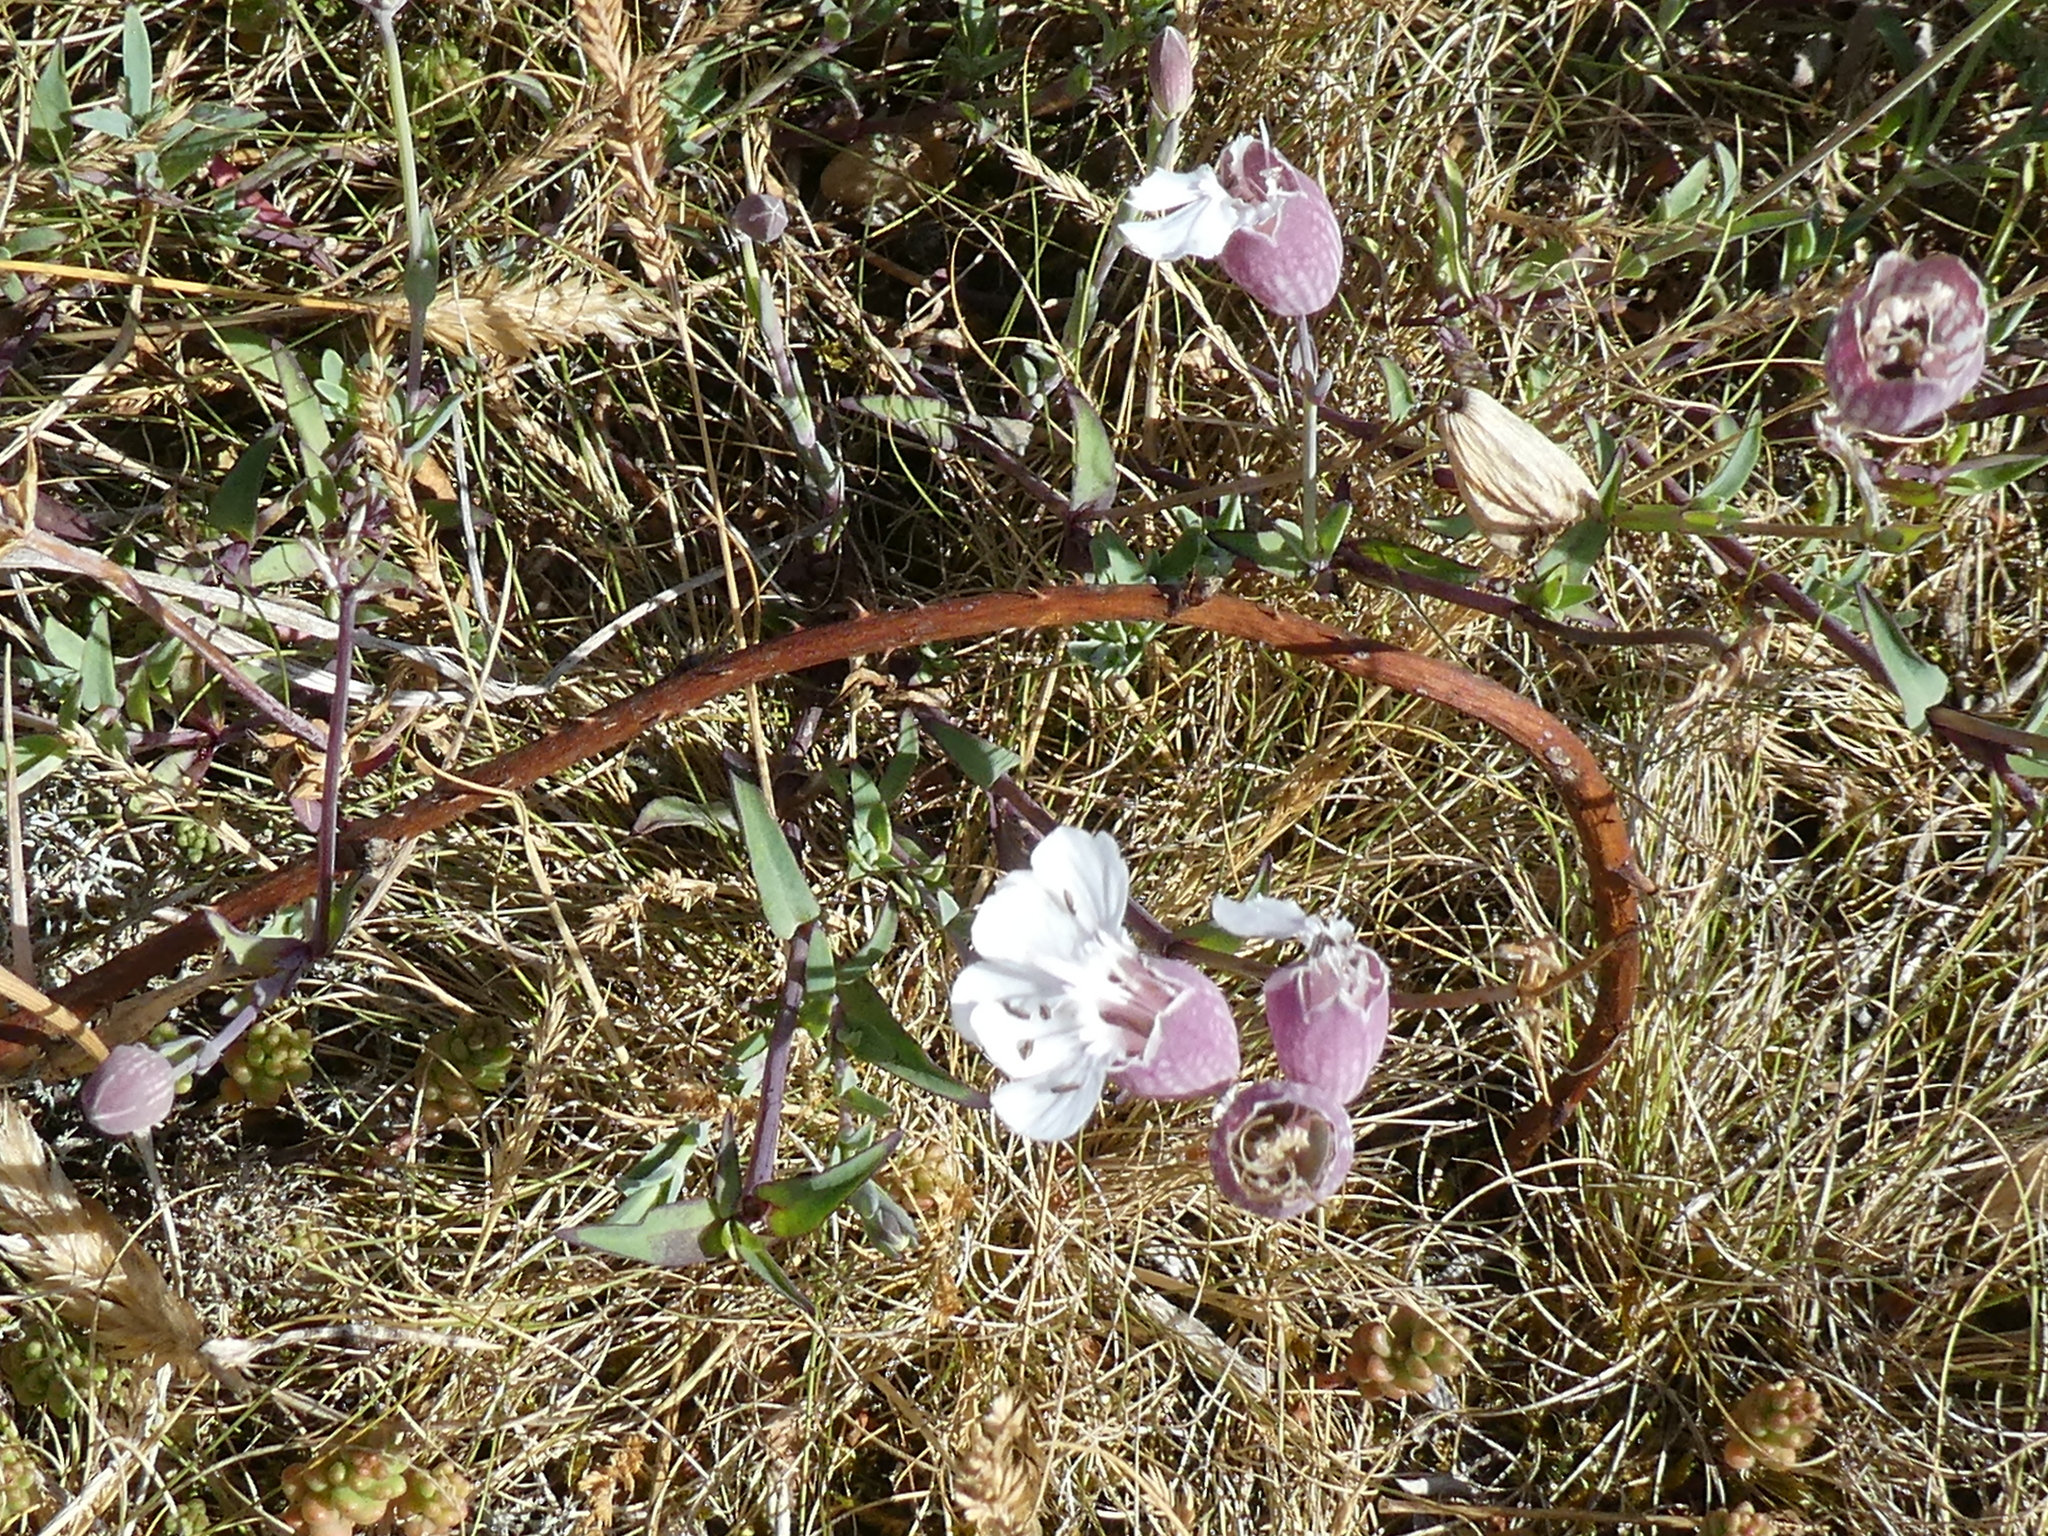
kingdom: Plantae
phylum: Tracheophyta
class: Magnoliopsida
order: Caryophyllales
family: Caryophyllaceae
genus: Silene
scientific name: Silene vulgaris
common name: Bladder campion
